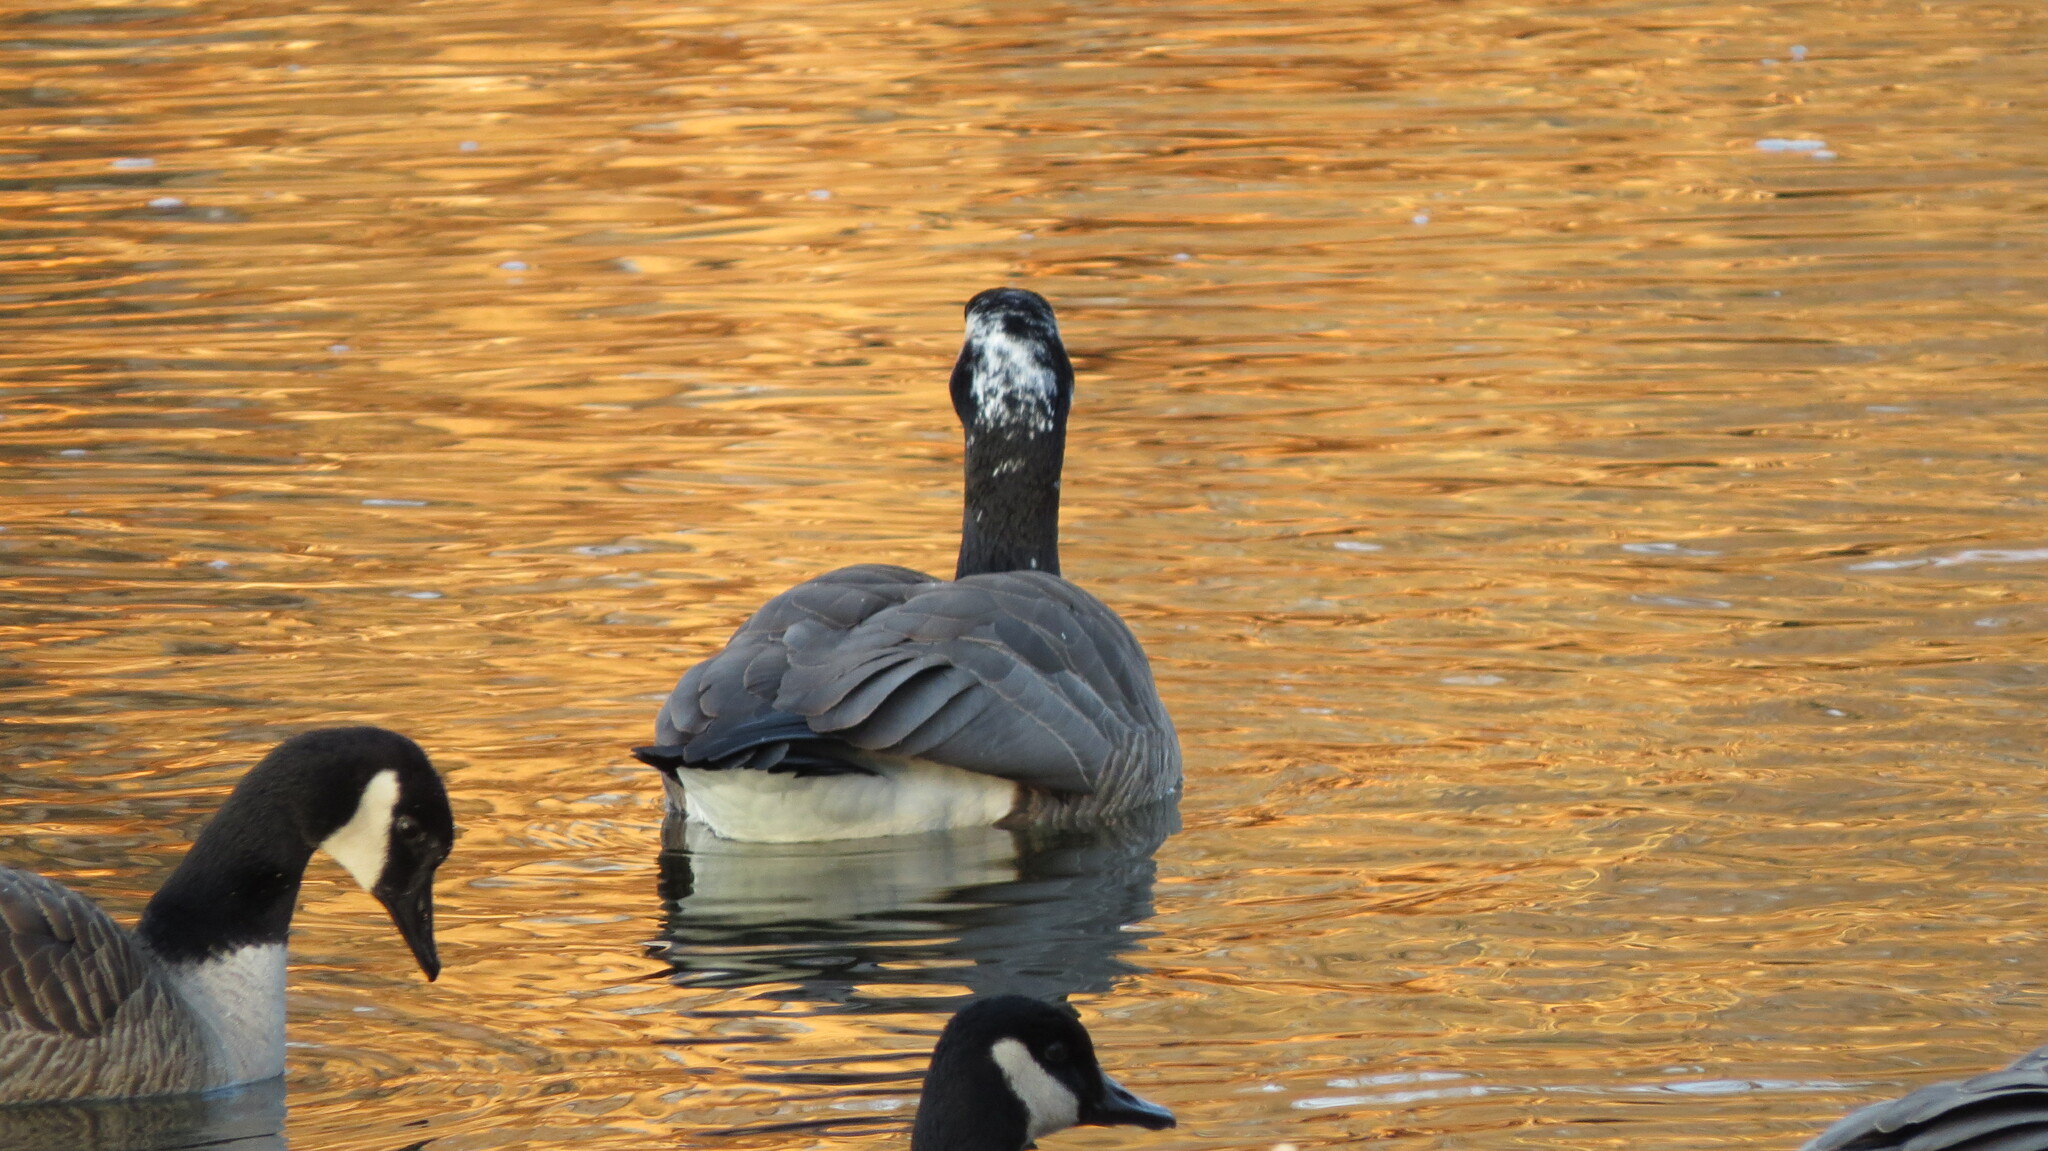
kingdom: Animalia
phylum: Chordata
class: Aves
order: Anseriformes
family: Anatidae
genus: Branta
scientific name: Branta canadensis
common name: Canada goose
